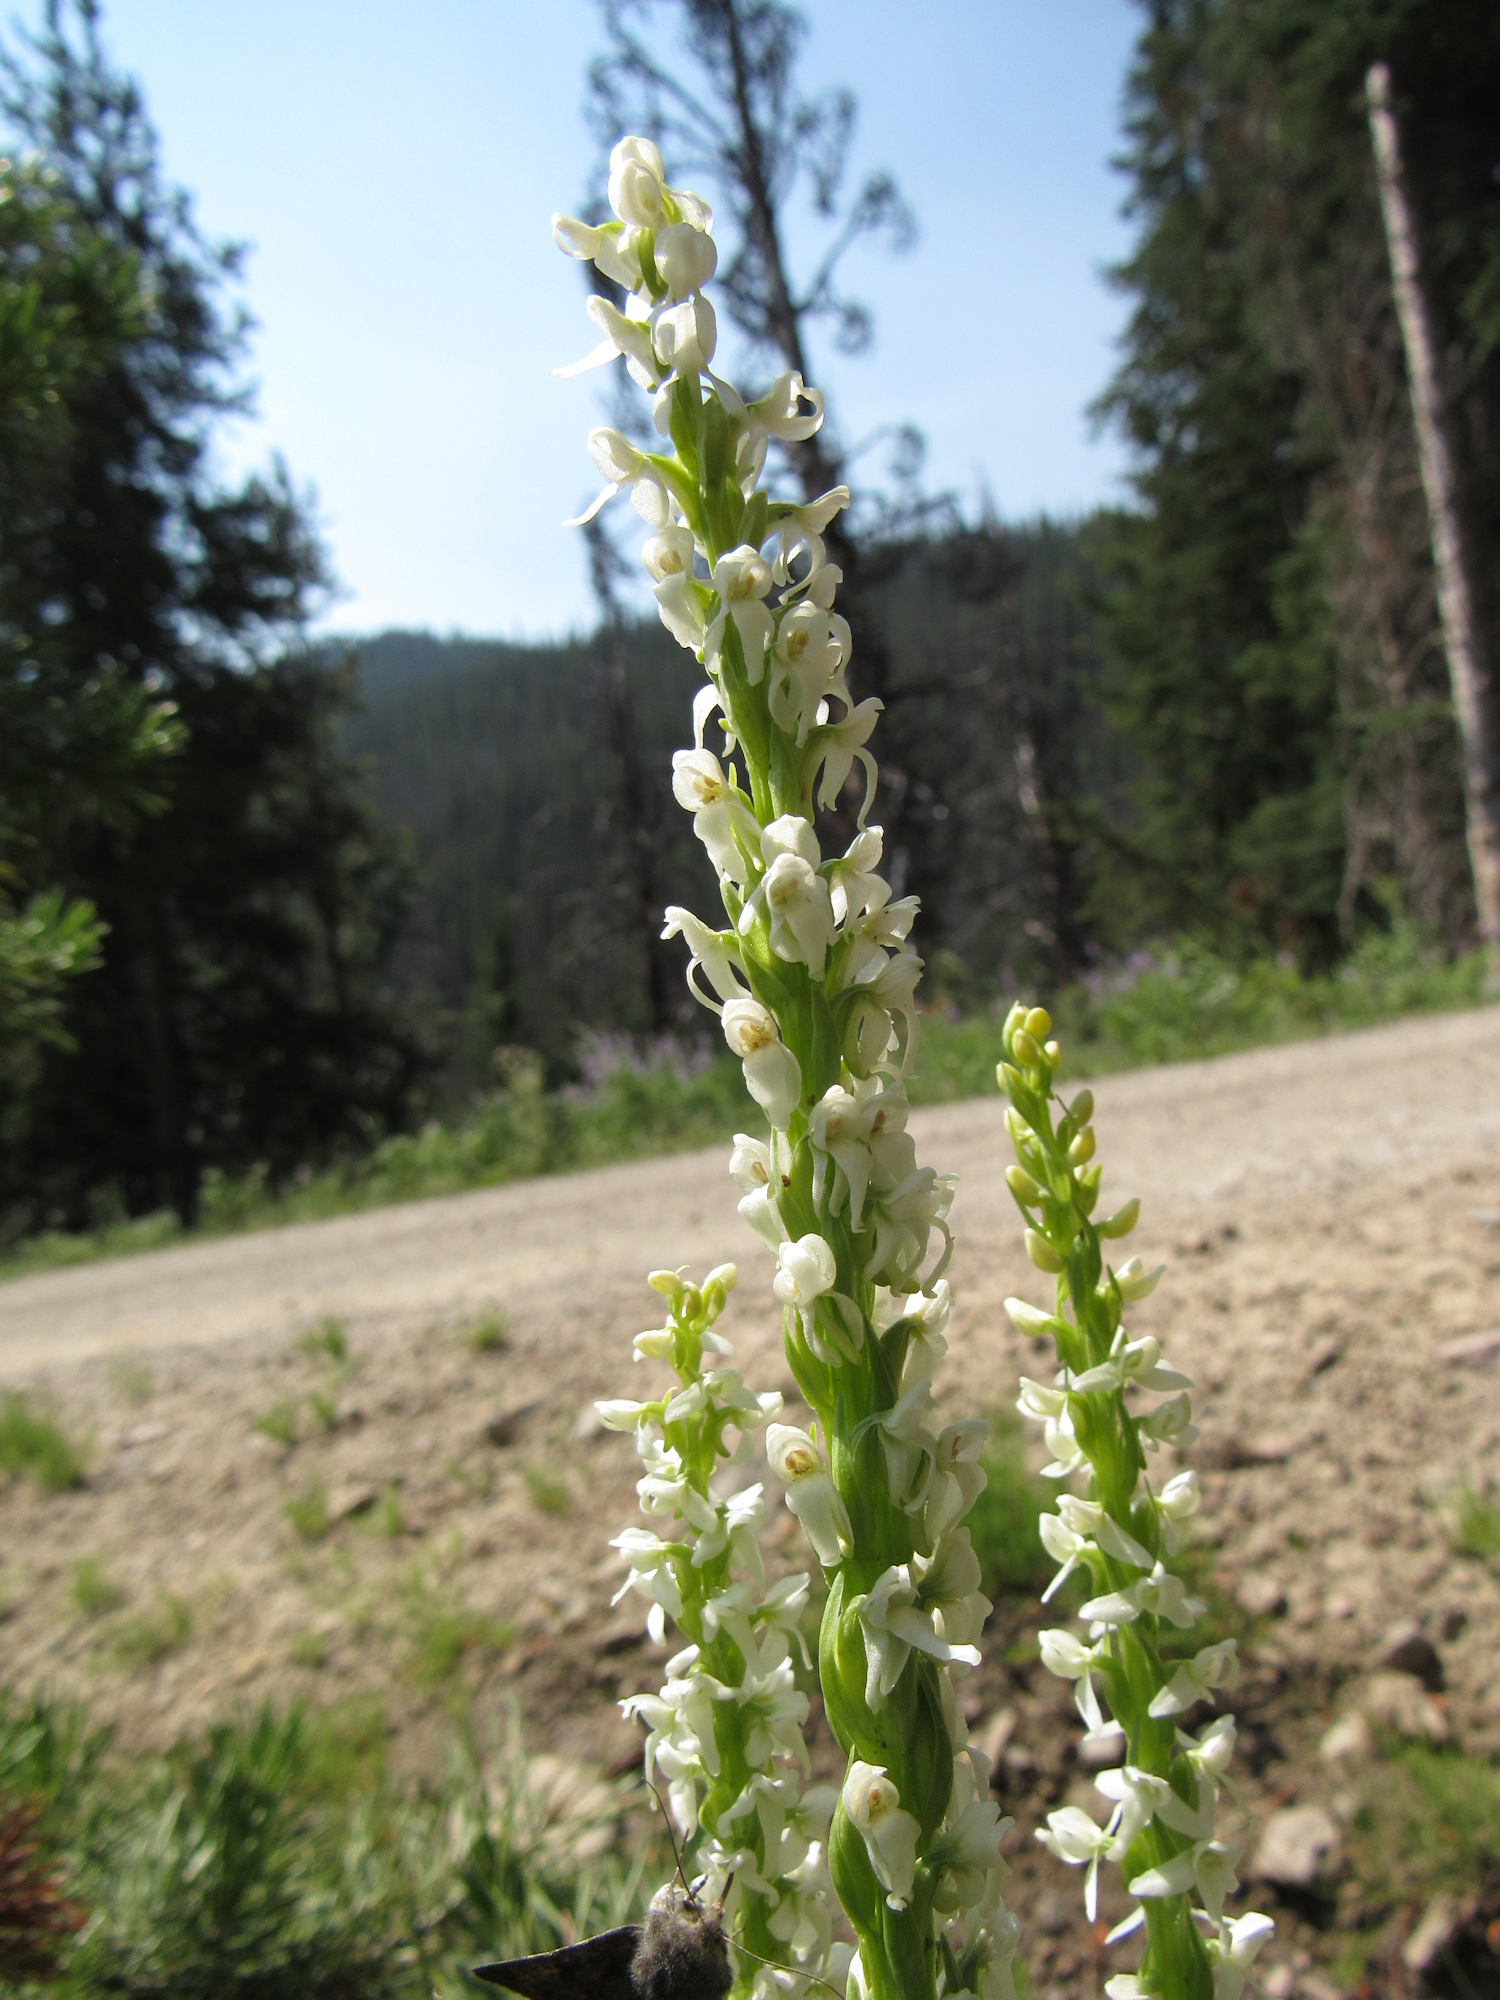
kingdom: Plantae
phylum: Tracheophyta
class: Liliopsida
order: Asparagales
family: Orchidaceae
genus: Platanthera
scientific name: Platanthera dilatata
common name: Bog candles
